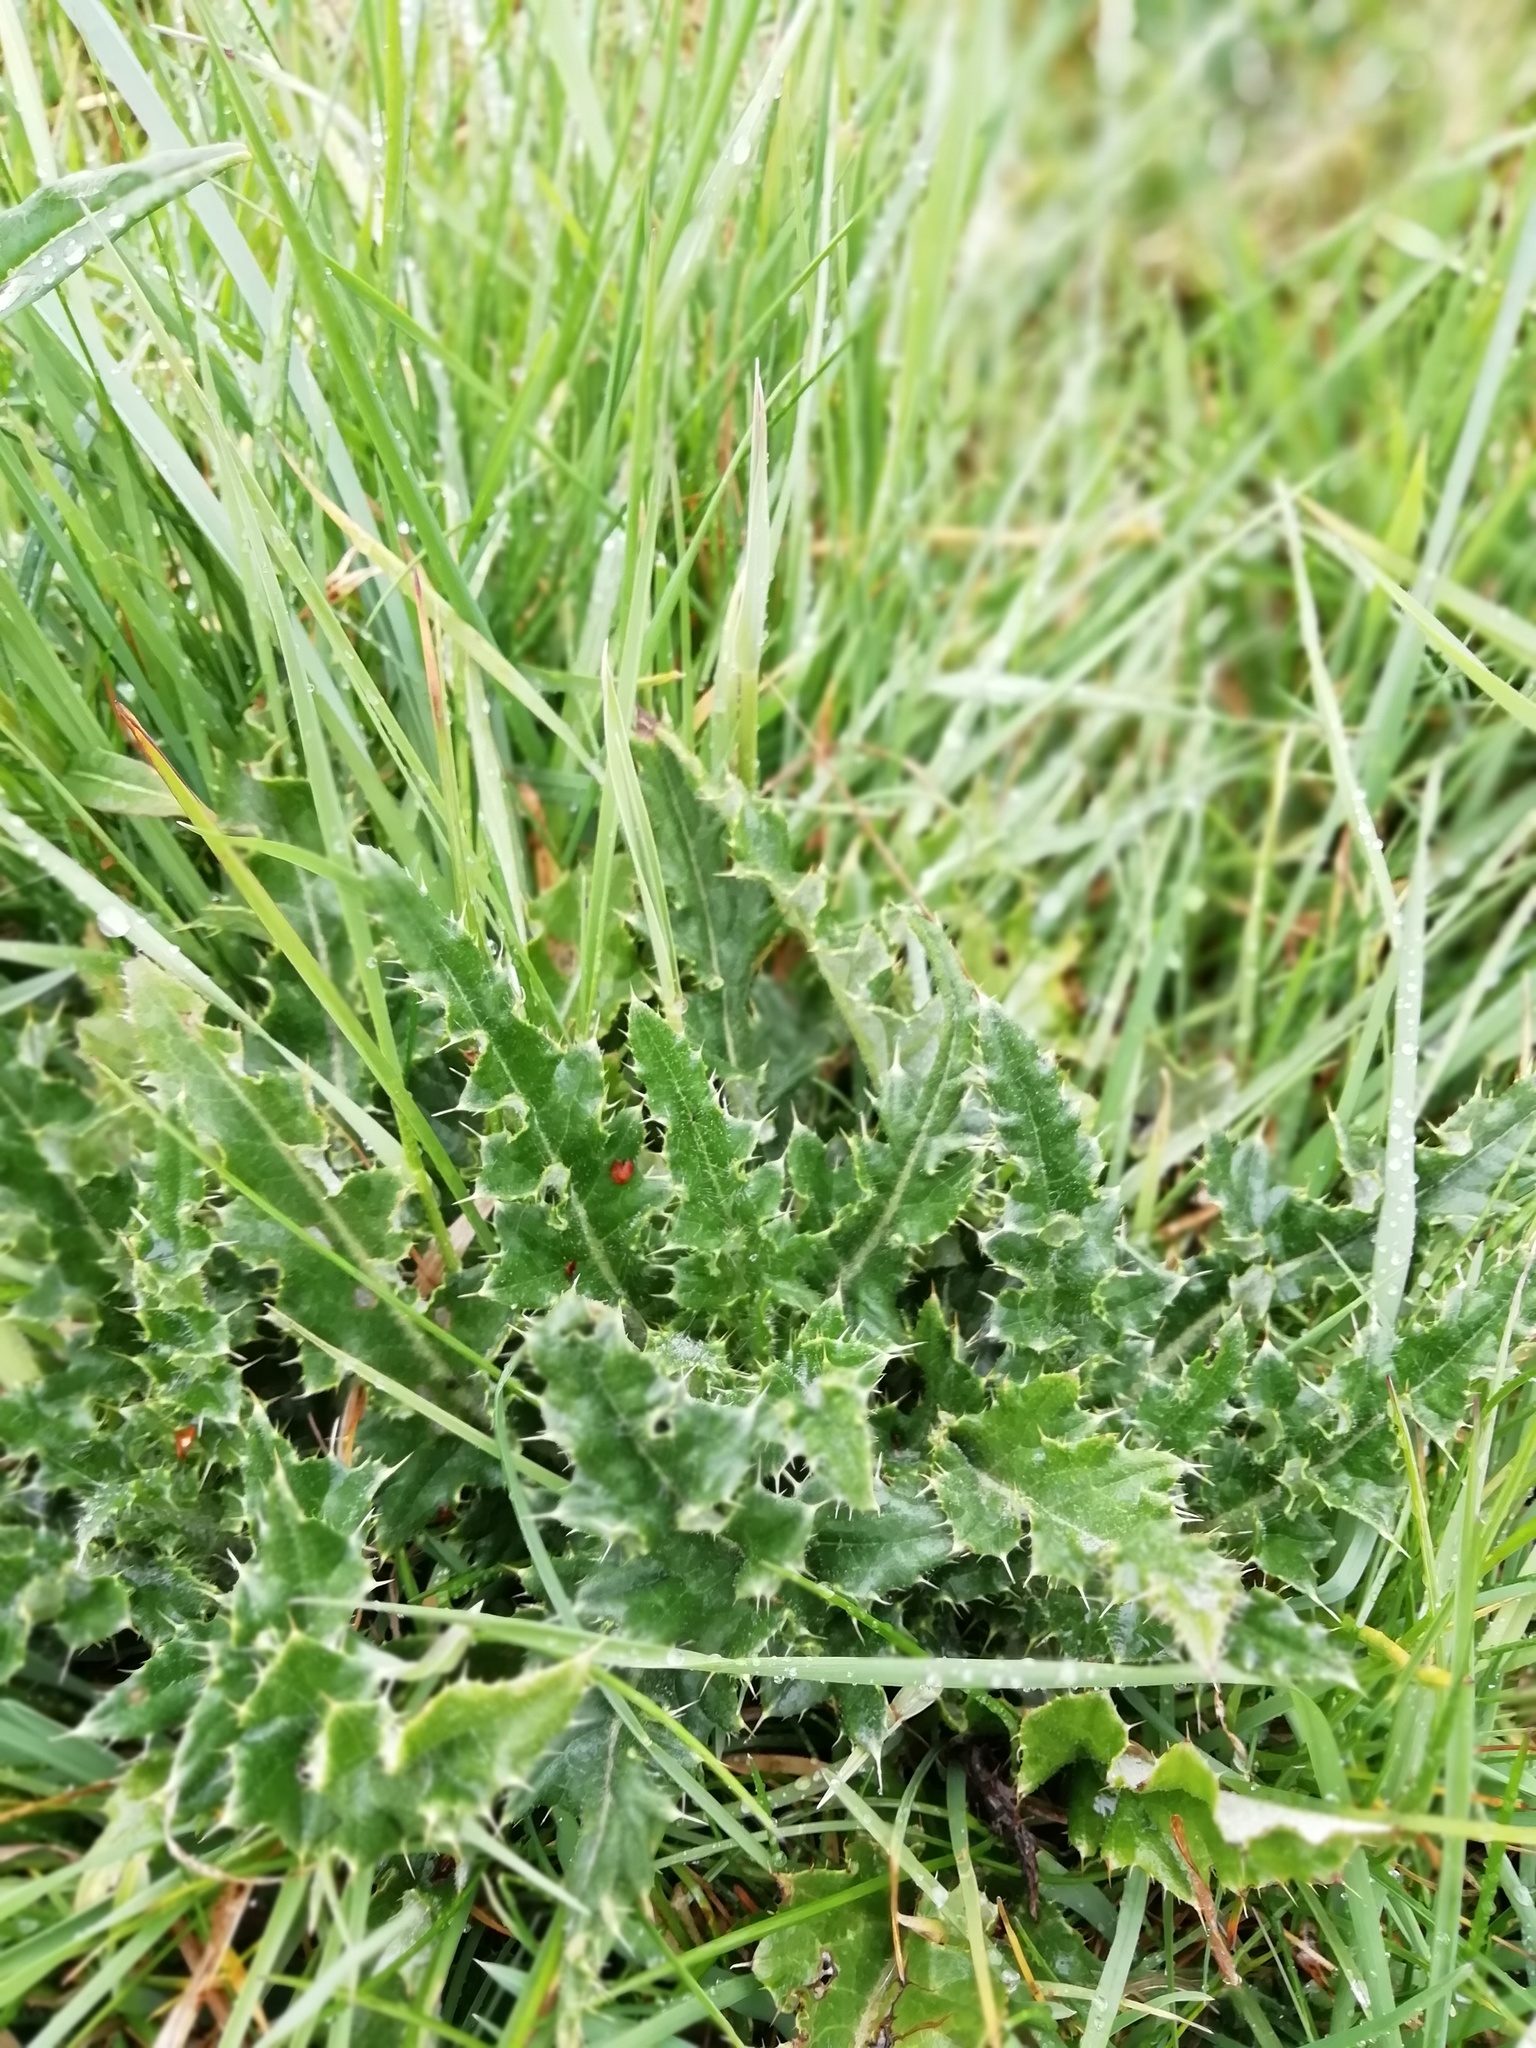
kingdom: Plantae
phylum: Tracheophyta
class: Magnoliopsida
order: Asterales
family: Asteraceae
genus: Cirsium
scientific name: Cirsium arvense
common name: Creeping thistle
